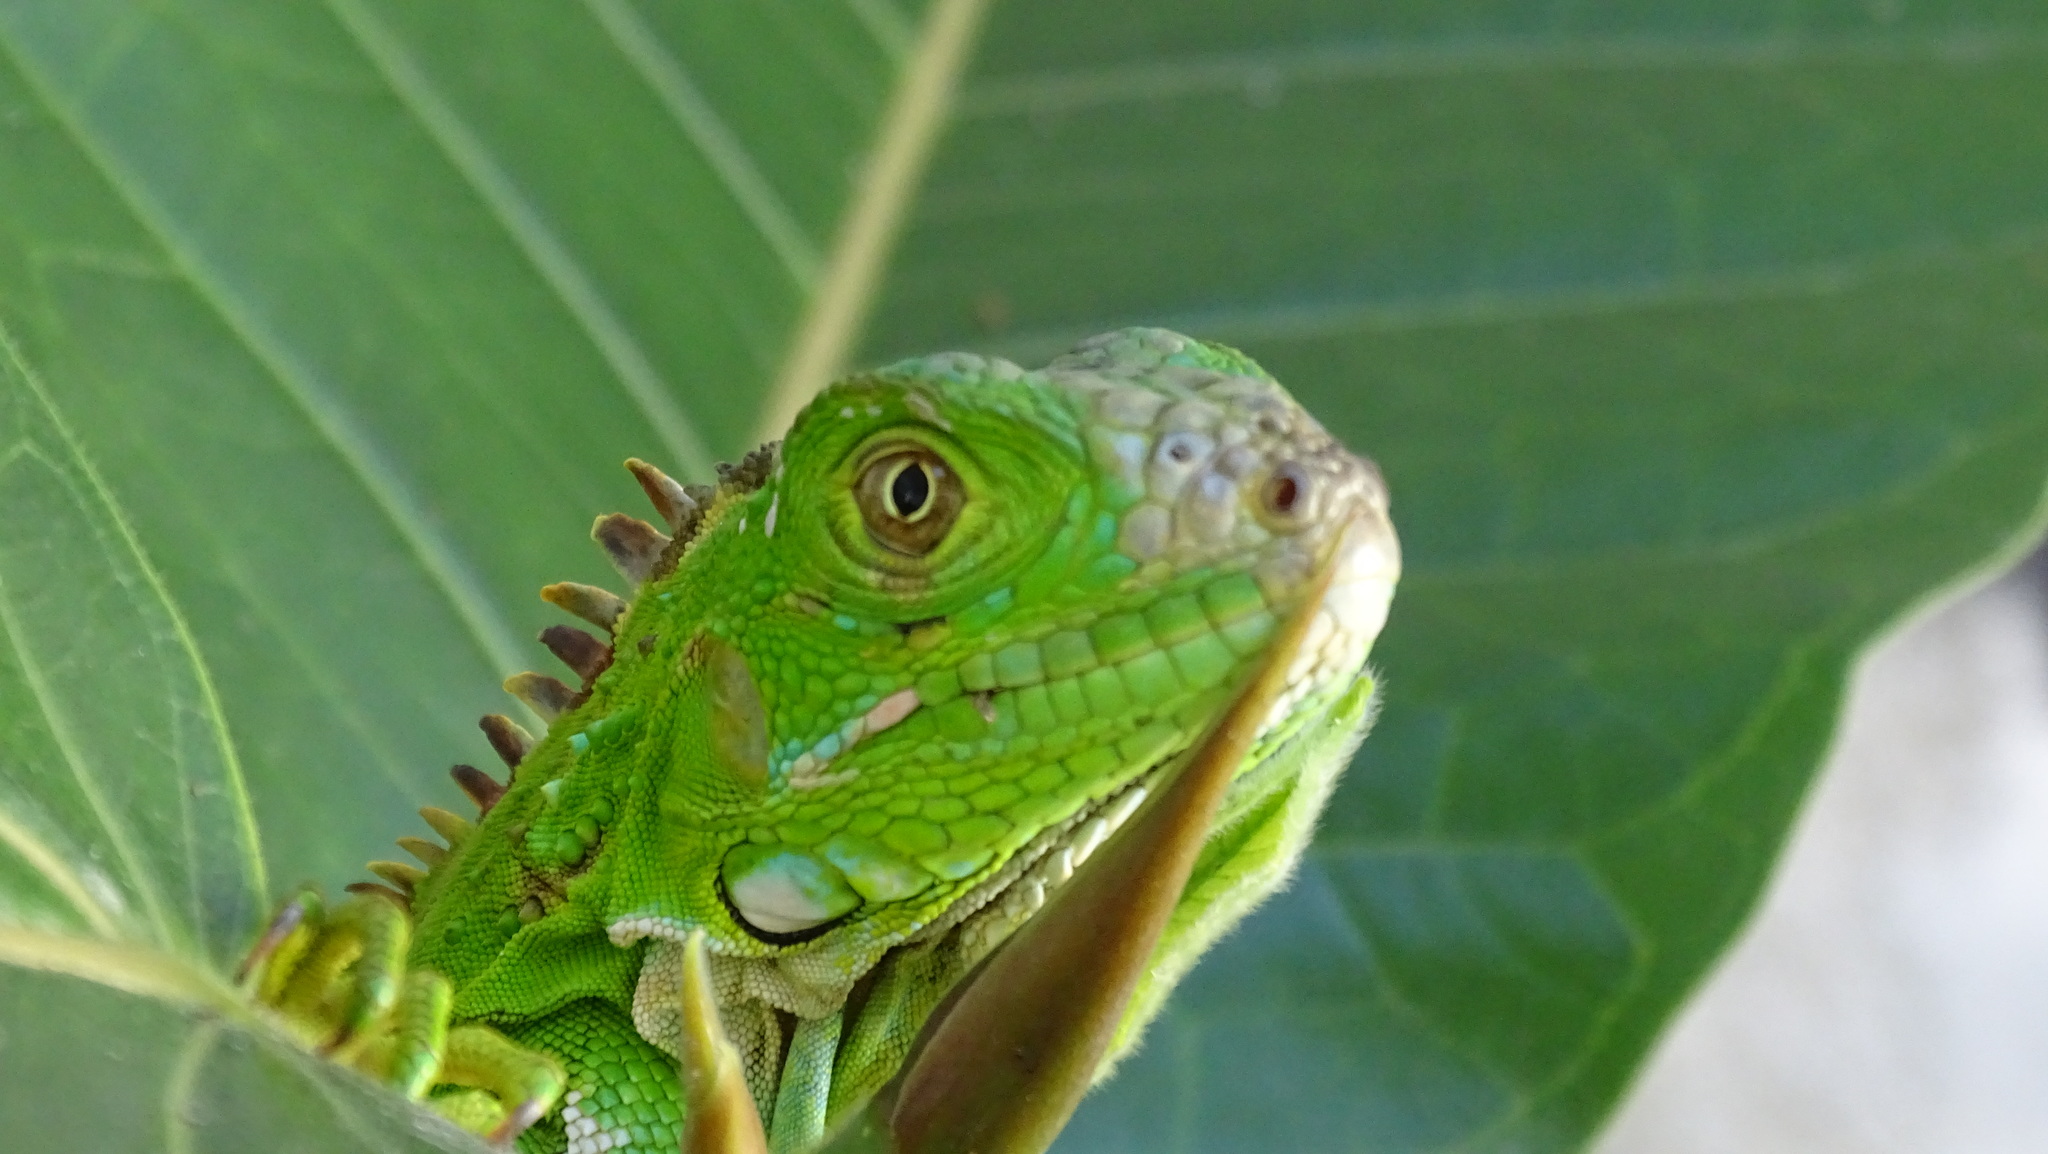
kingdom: Animalia
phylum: Chordata
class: Squamata
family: Iguanidae
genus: Iguana
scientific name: Iguana iguana
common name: Green iguana
